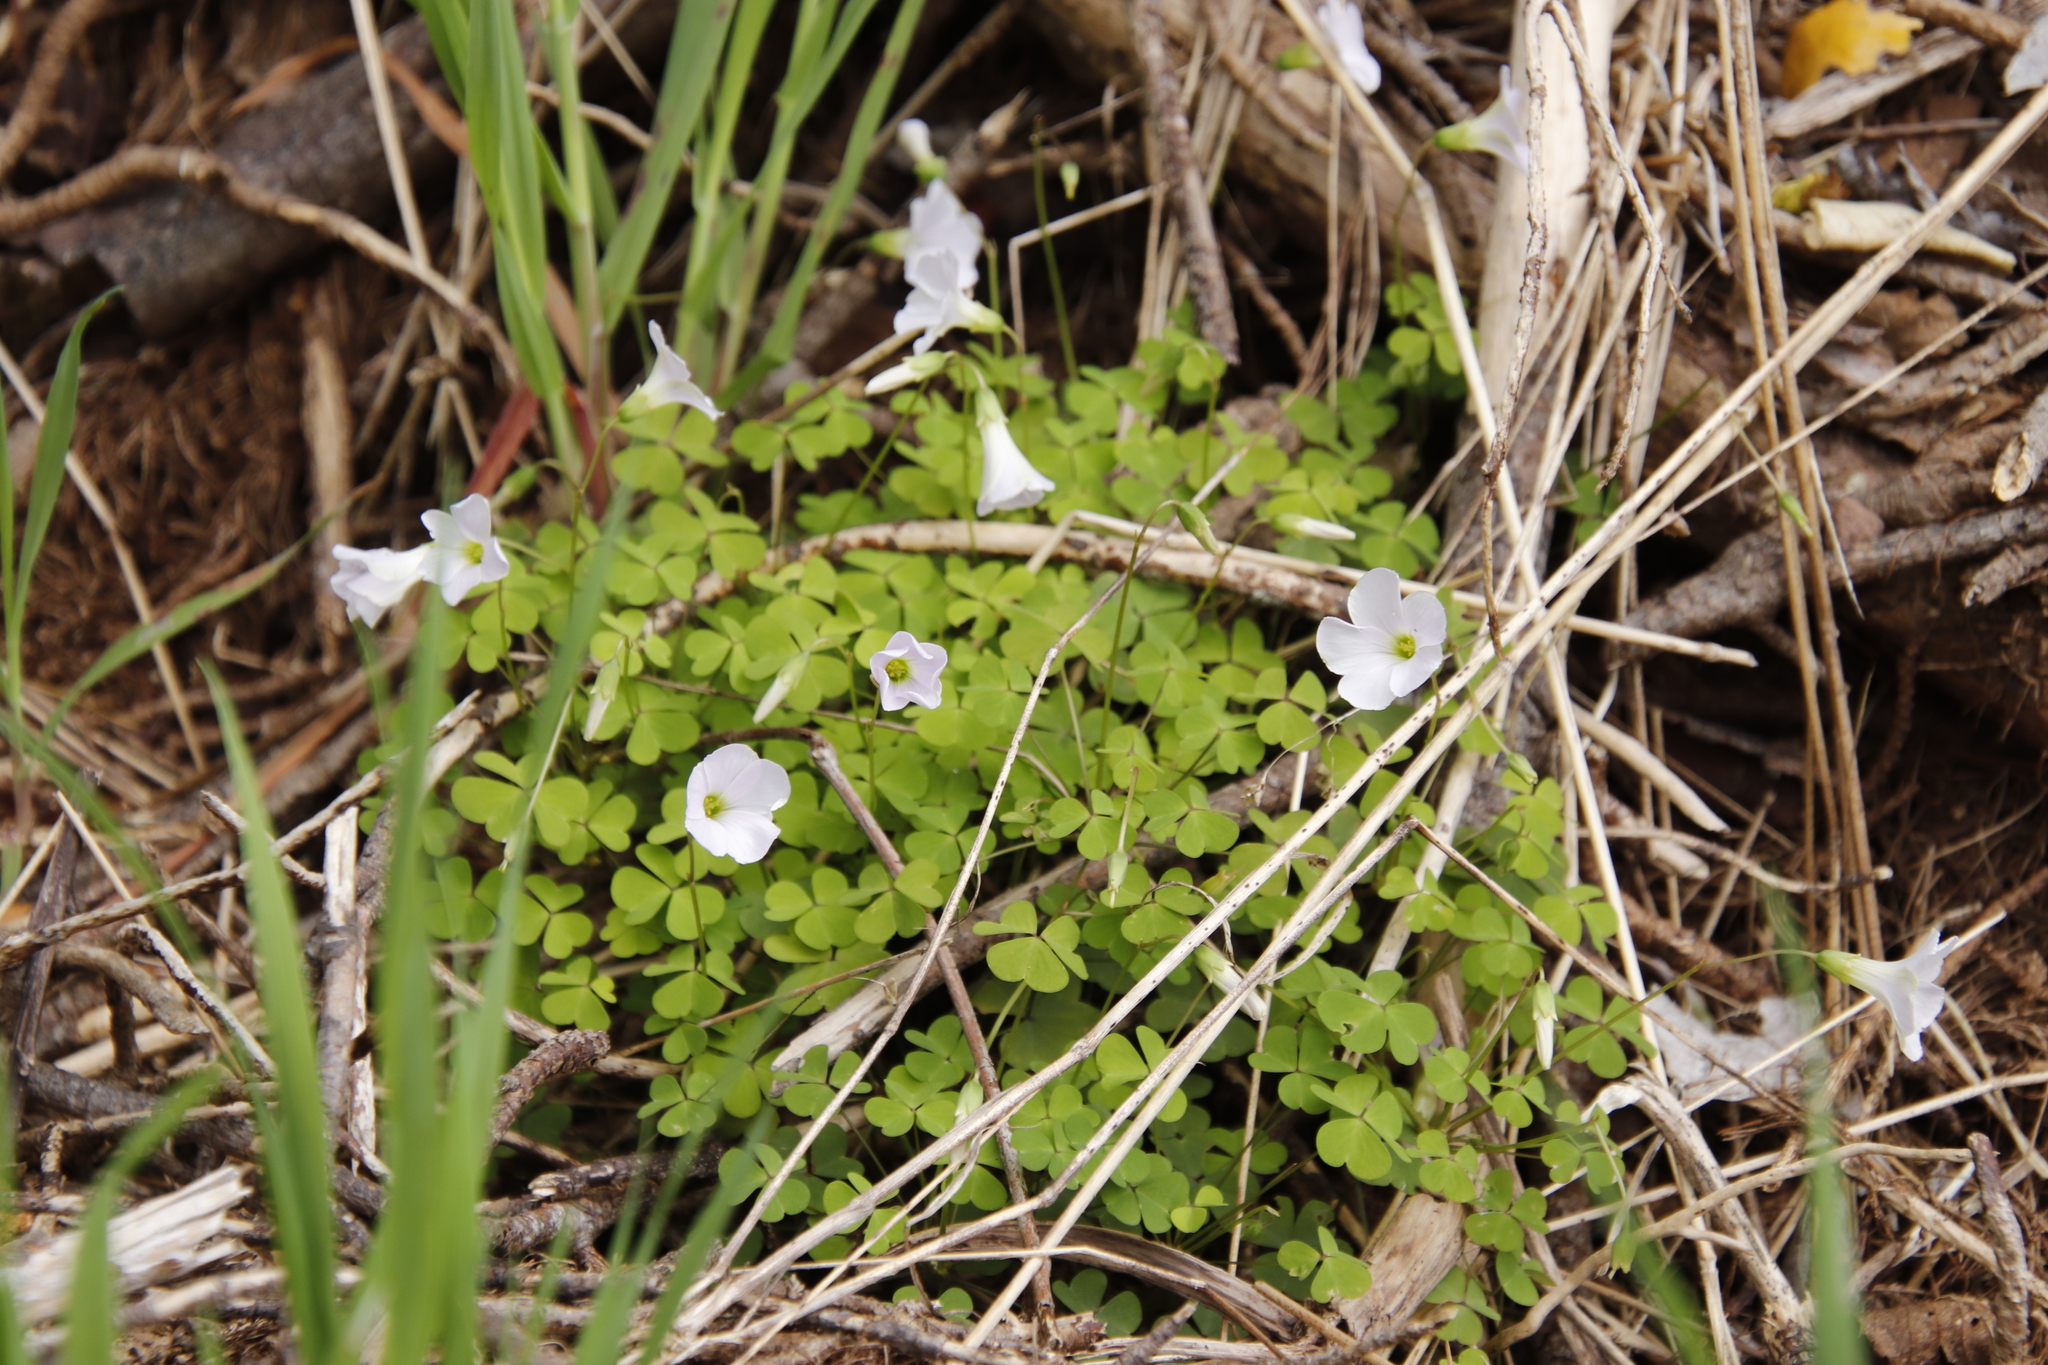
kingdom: Plantae
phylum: Tracheophyta
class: Magnoliopsida
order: Oxalidales
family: Oxalidaceae
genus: Oxalis
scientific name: Oxalis incarnata
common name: Pale pink-sorrel
